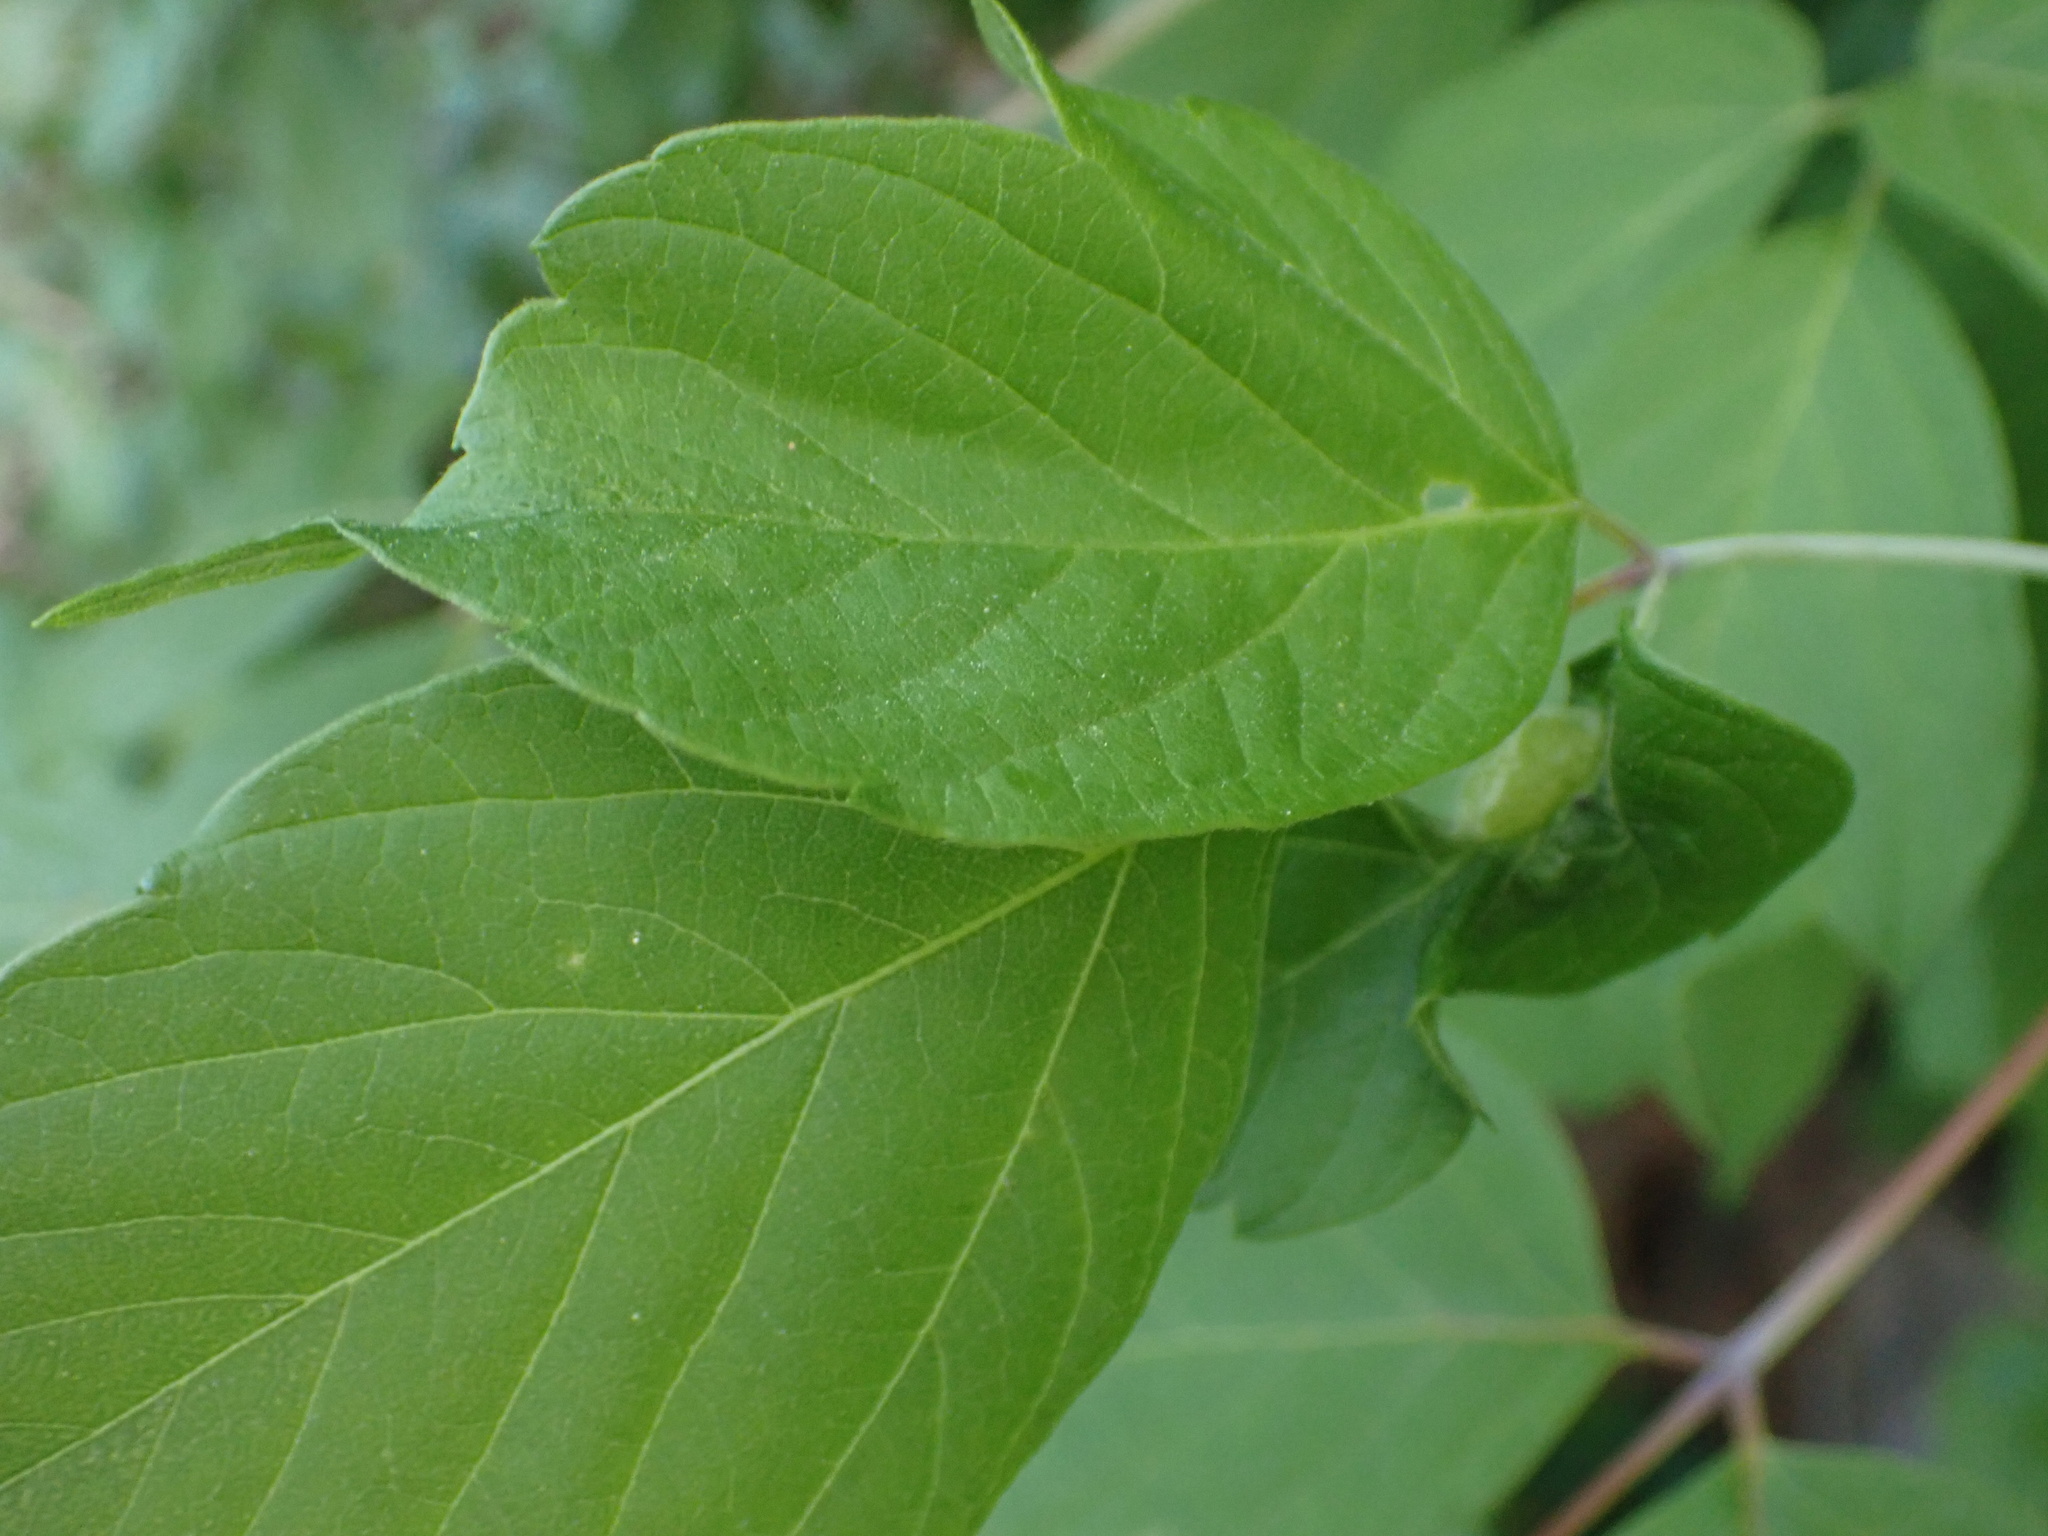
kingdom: Animalia
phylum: Arthropoda
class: Insecta
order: Diptera
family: Cecidomyiidae
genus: Contarinia
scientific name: Contarinia negundinis
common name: Boxelder budgall midge
